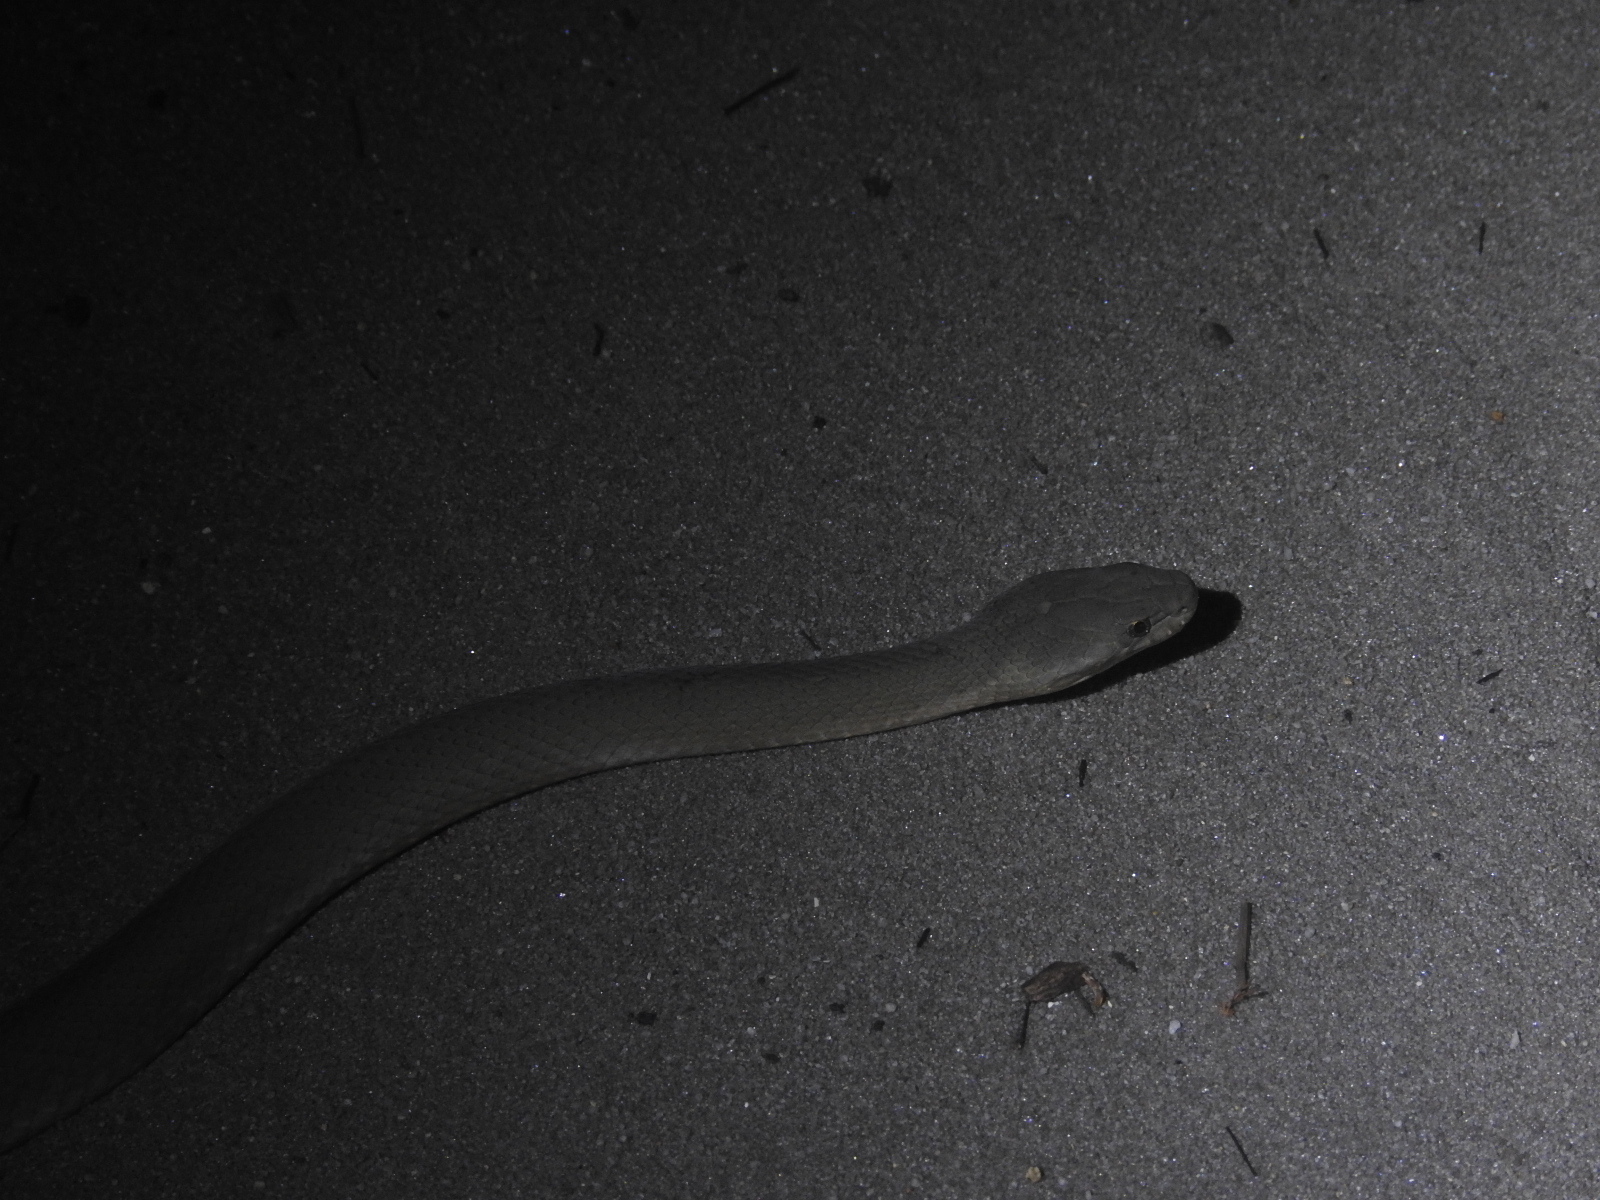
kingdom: Animalia
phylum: Chordata
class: Squamata
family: Elapidae
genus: Echiopsis
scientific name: Echiopsis curta
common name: Bardick
